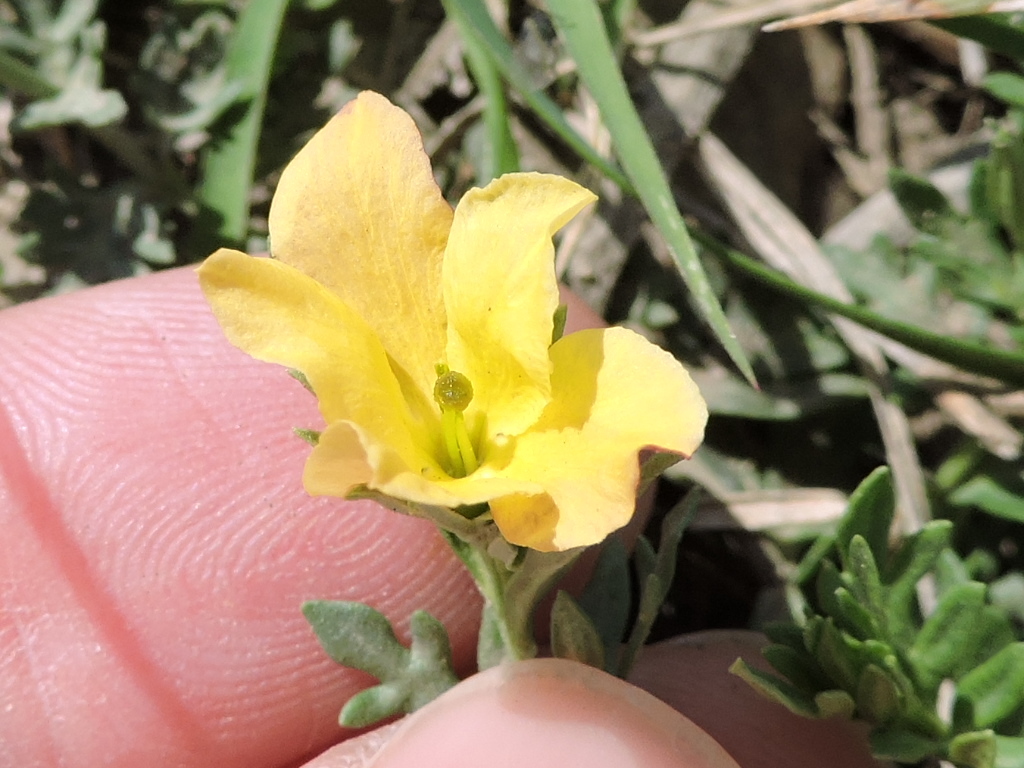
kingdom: Plantae
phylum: Tracheophyta
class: Magnoliopsida
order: Lamiales
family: Oleaceae
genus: Menodora
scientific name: Menodora heterophylla
